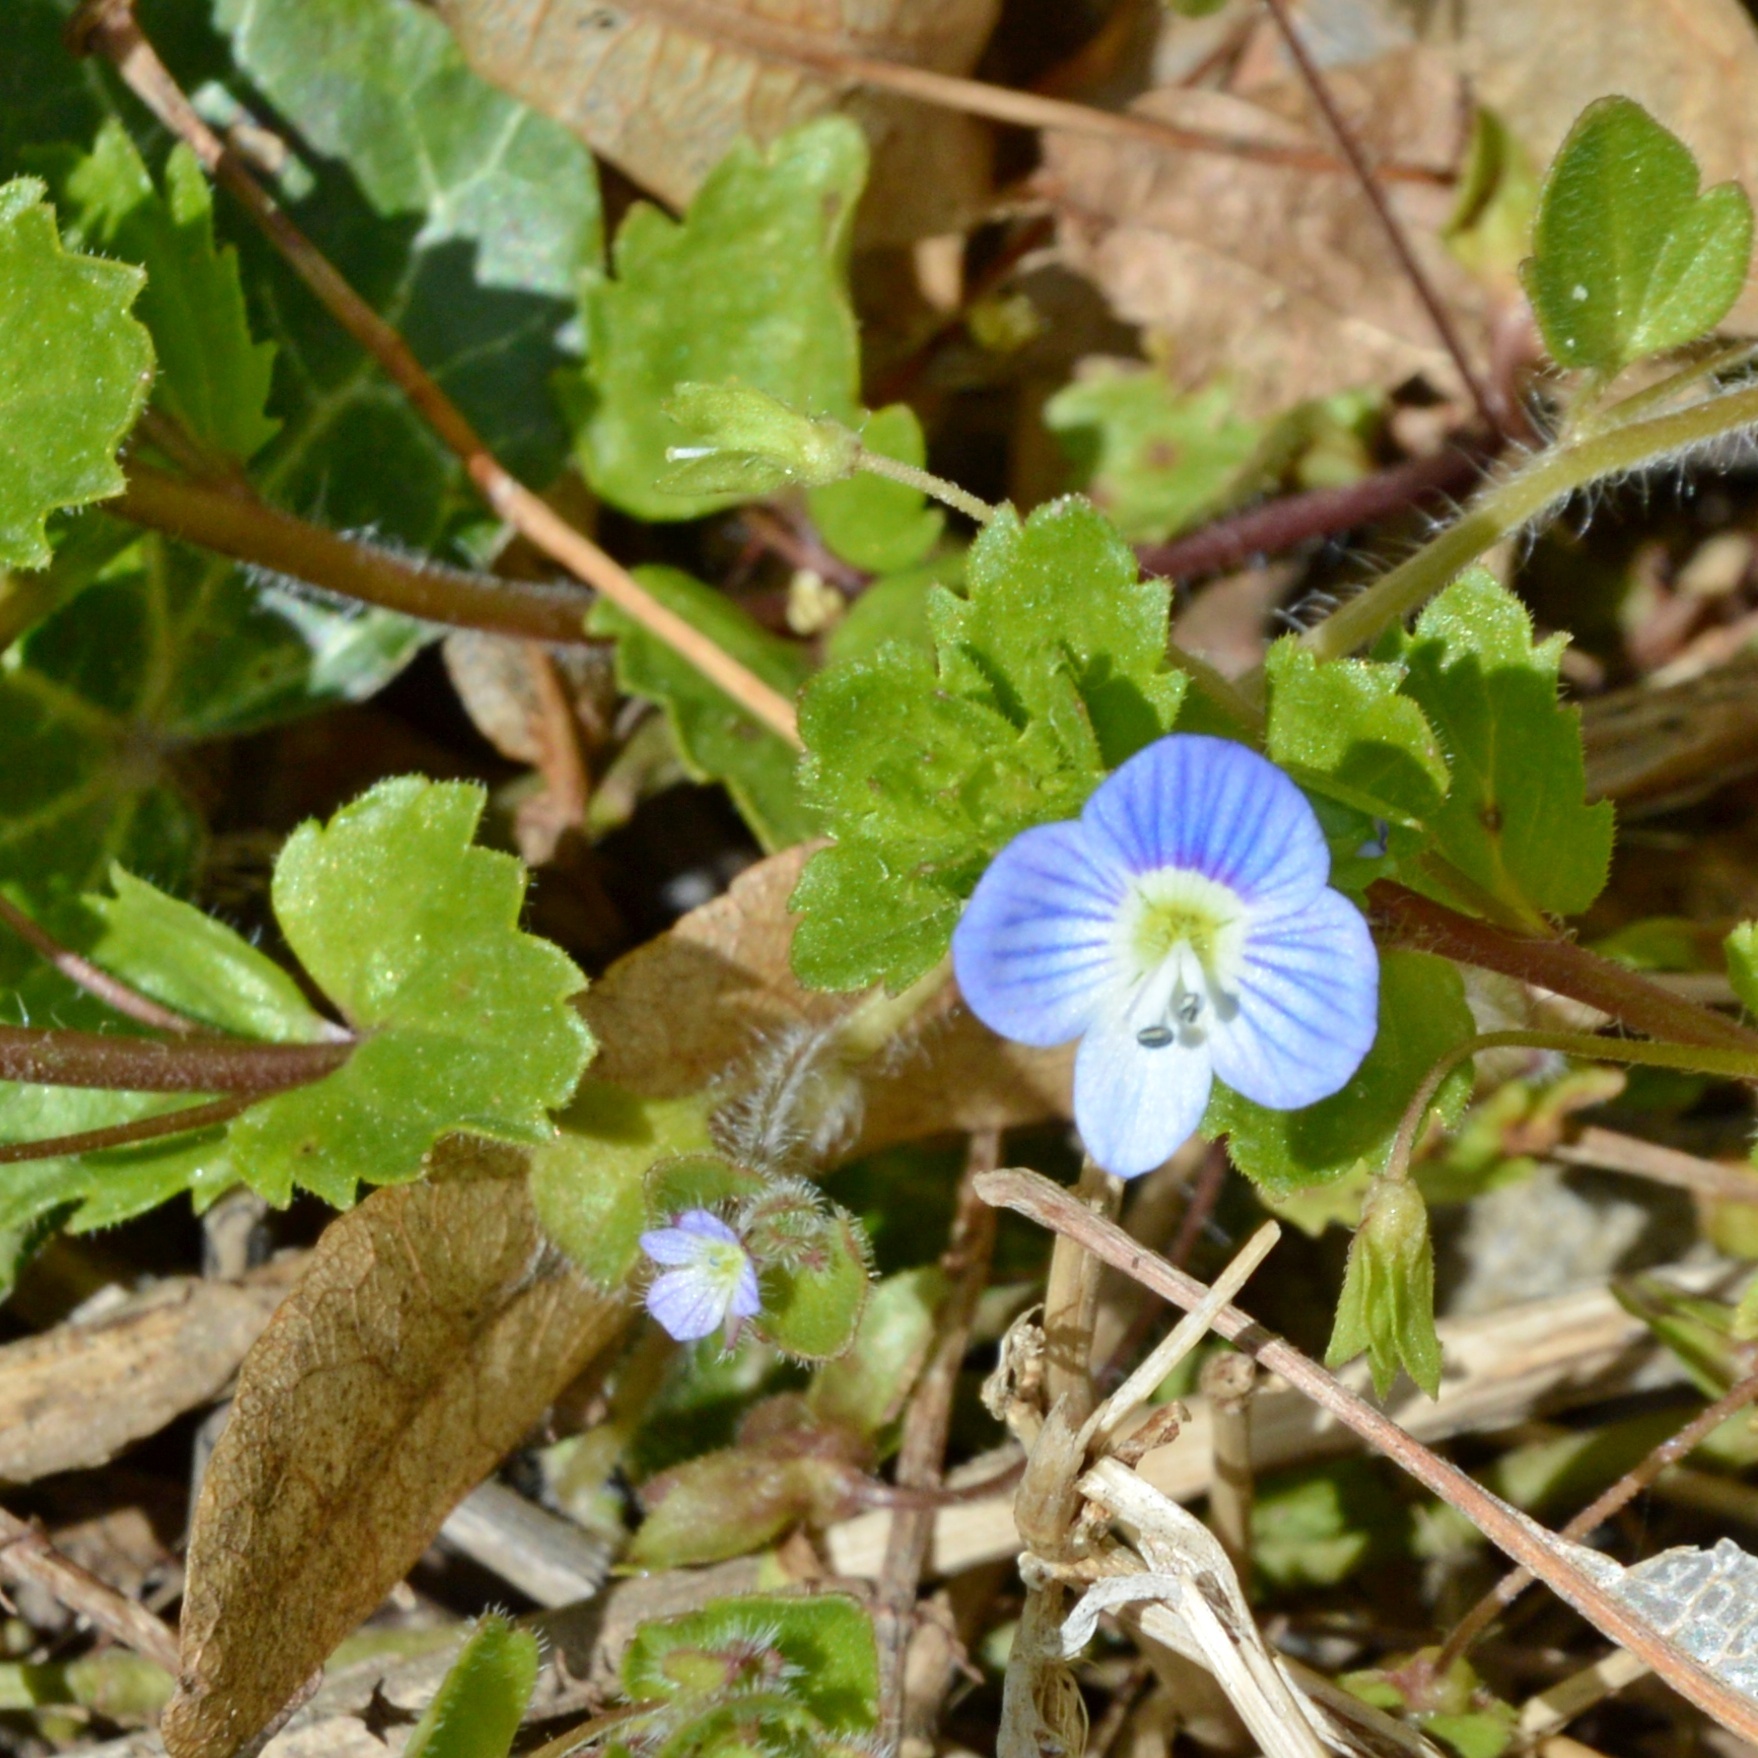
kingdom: Plantae
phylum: Tracheophyta
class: Magnoliopsida
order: Lamiales
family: Plantaginaceae
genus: Veronica
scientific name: Veronica persica
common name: Common field-speedwell
